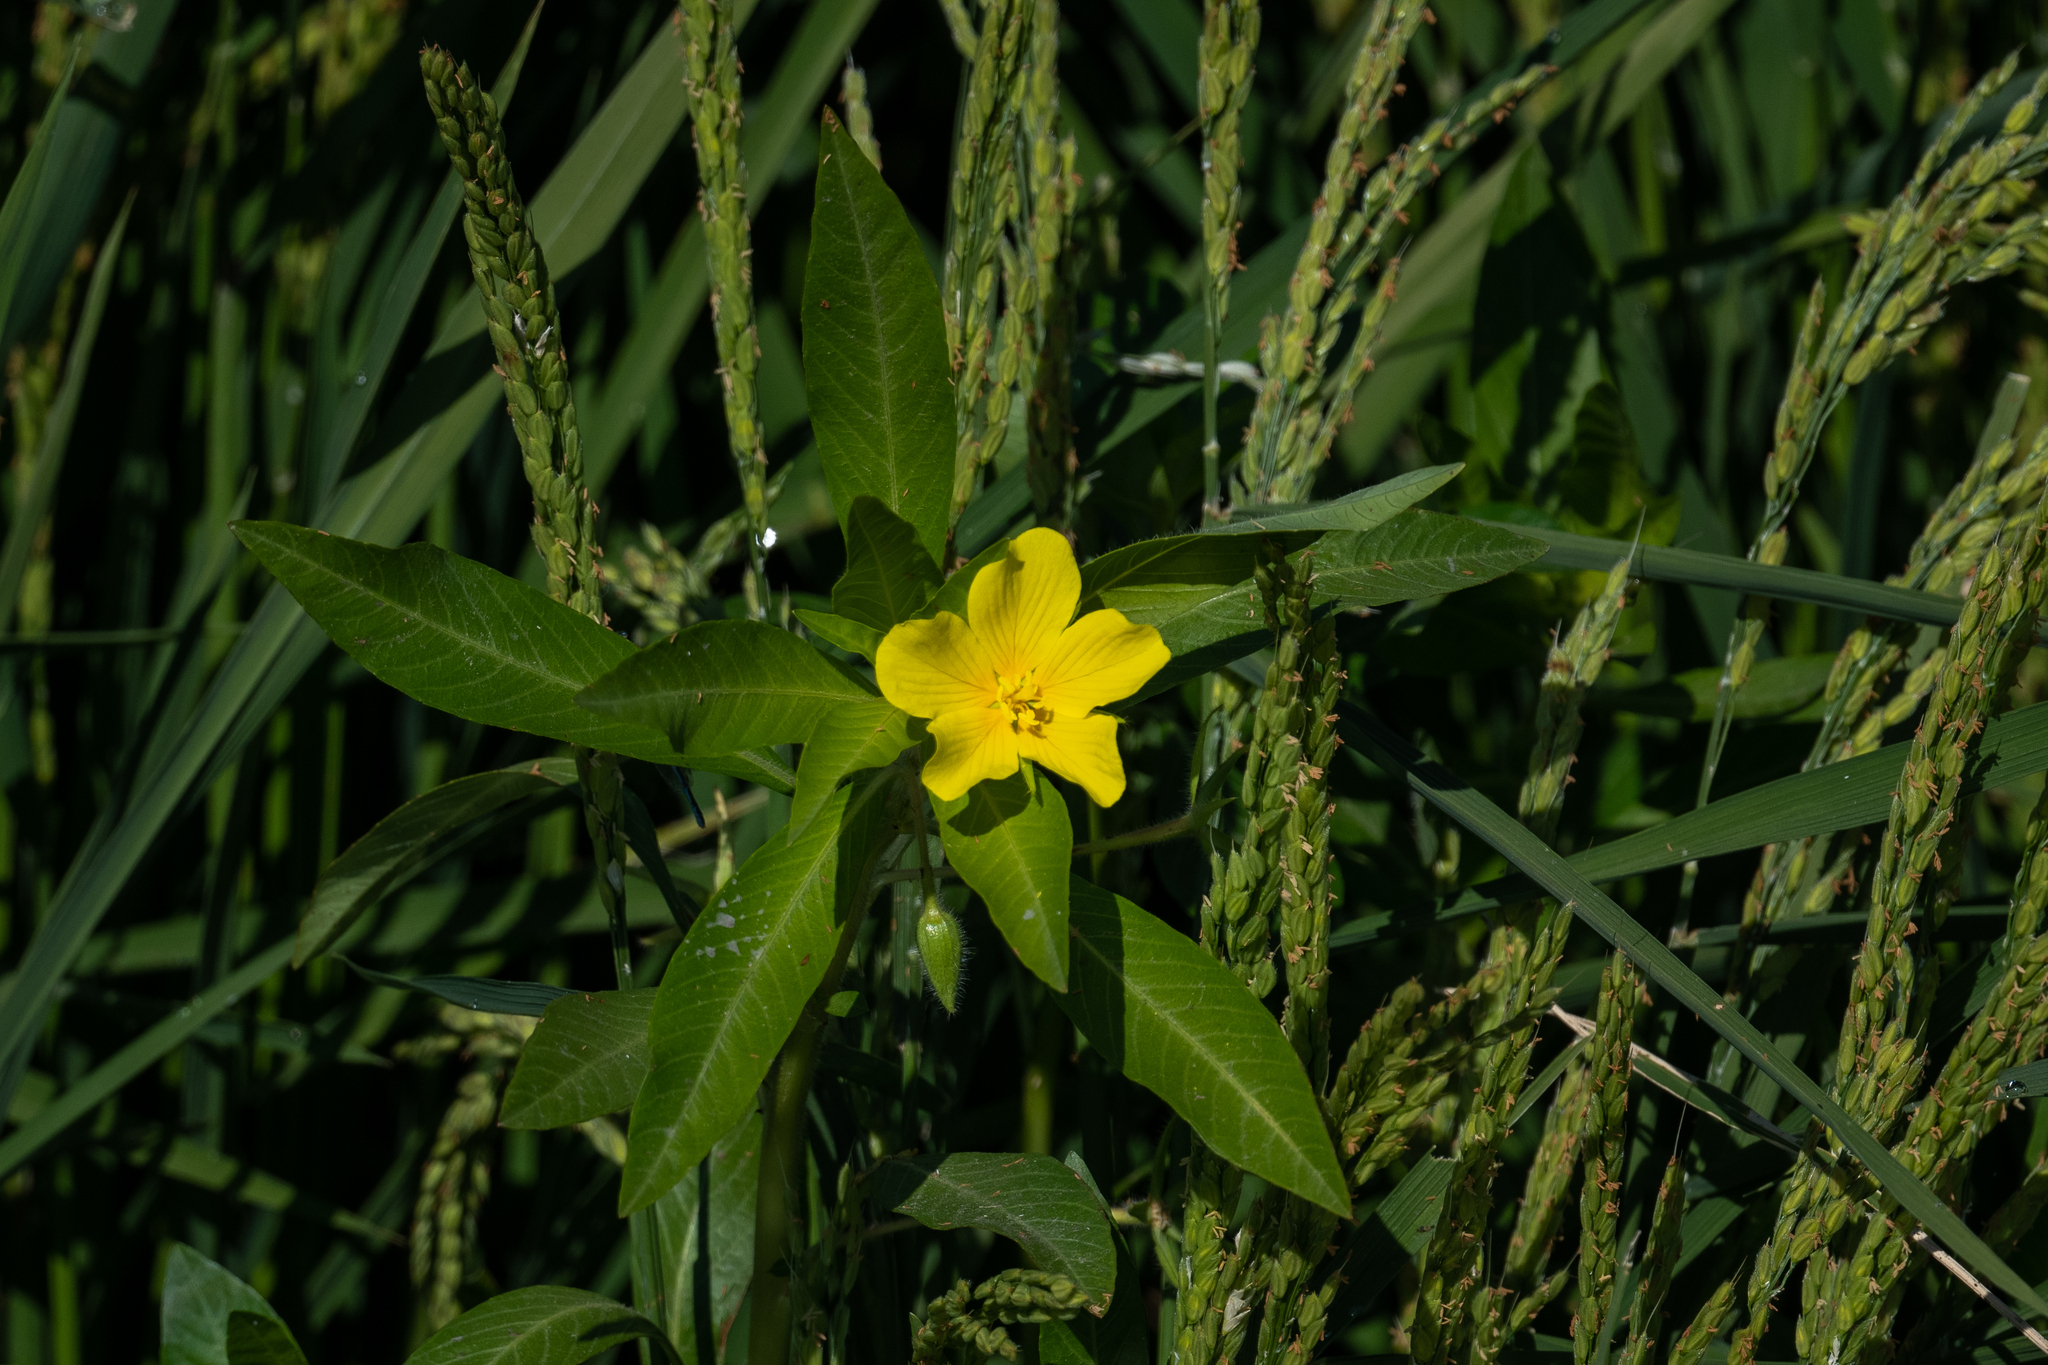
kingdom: Plantae
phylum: Tracheophyta
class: Magnoliopsida
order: Myrtales
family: Onagraceae
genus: Ludwigia
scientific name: Ludwigia hexapetala
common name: Water-primrose
